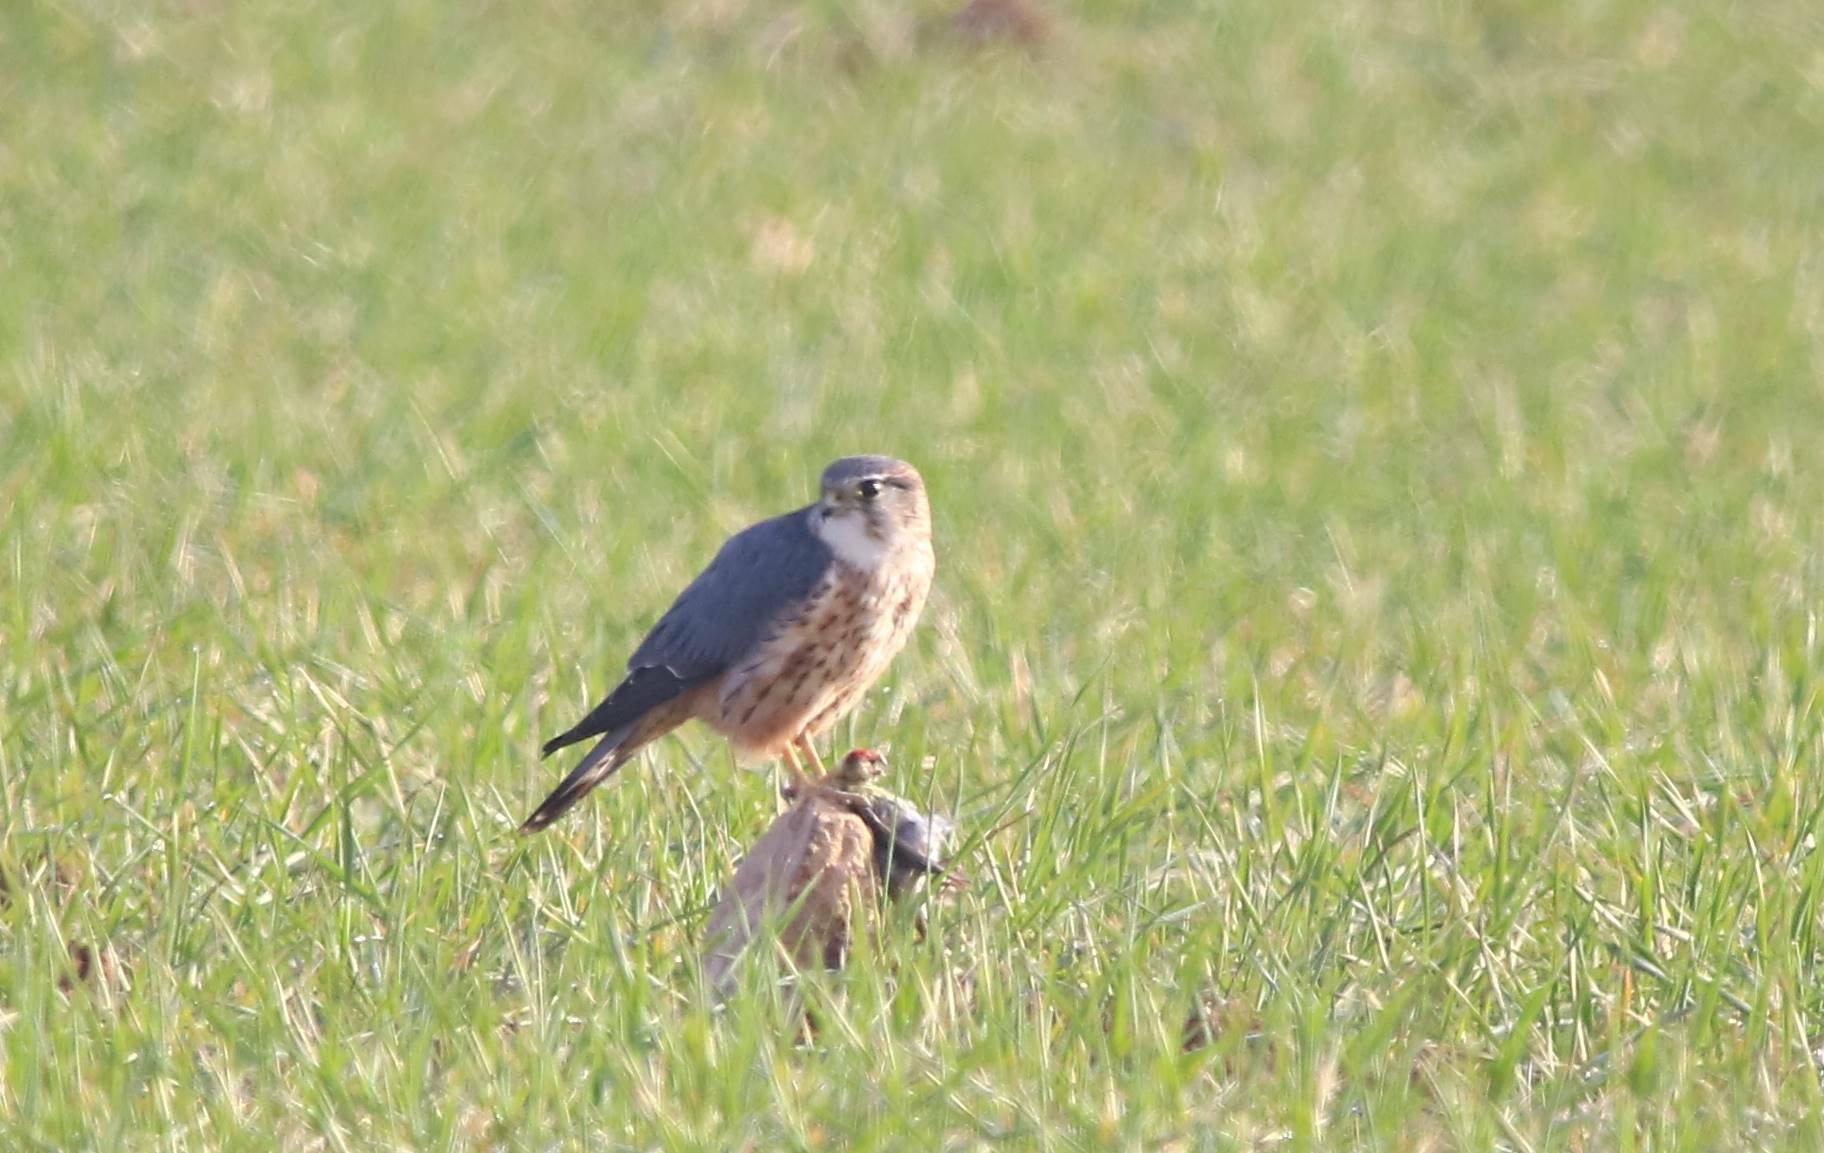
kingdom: Animalia
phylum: Chordata
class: Aves
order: Falconiformes
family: Falconidae
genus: Falco
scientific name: Falco columbarius
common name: Merlin
